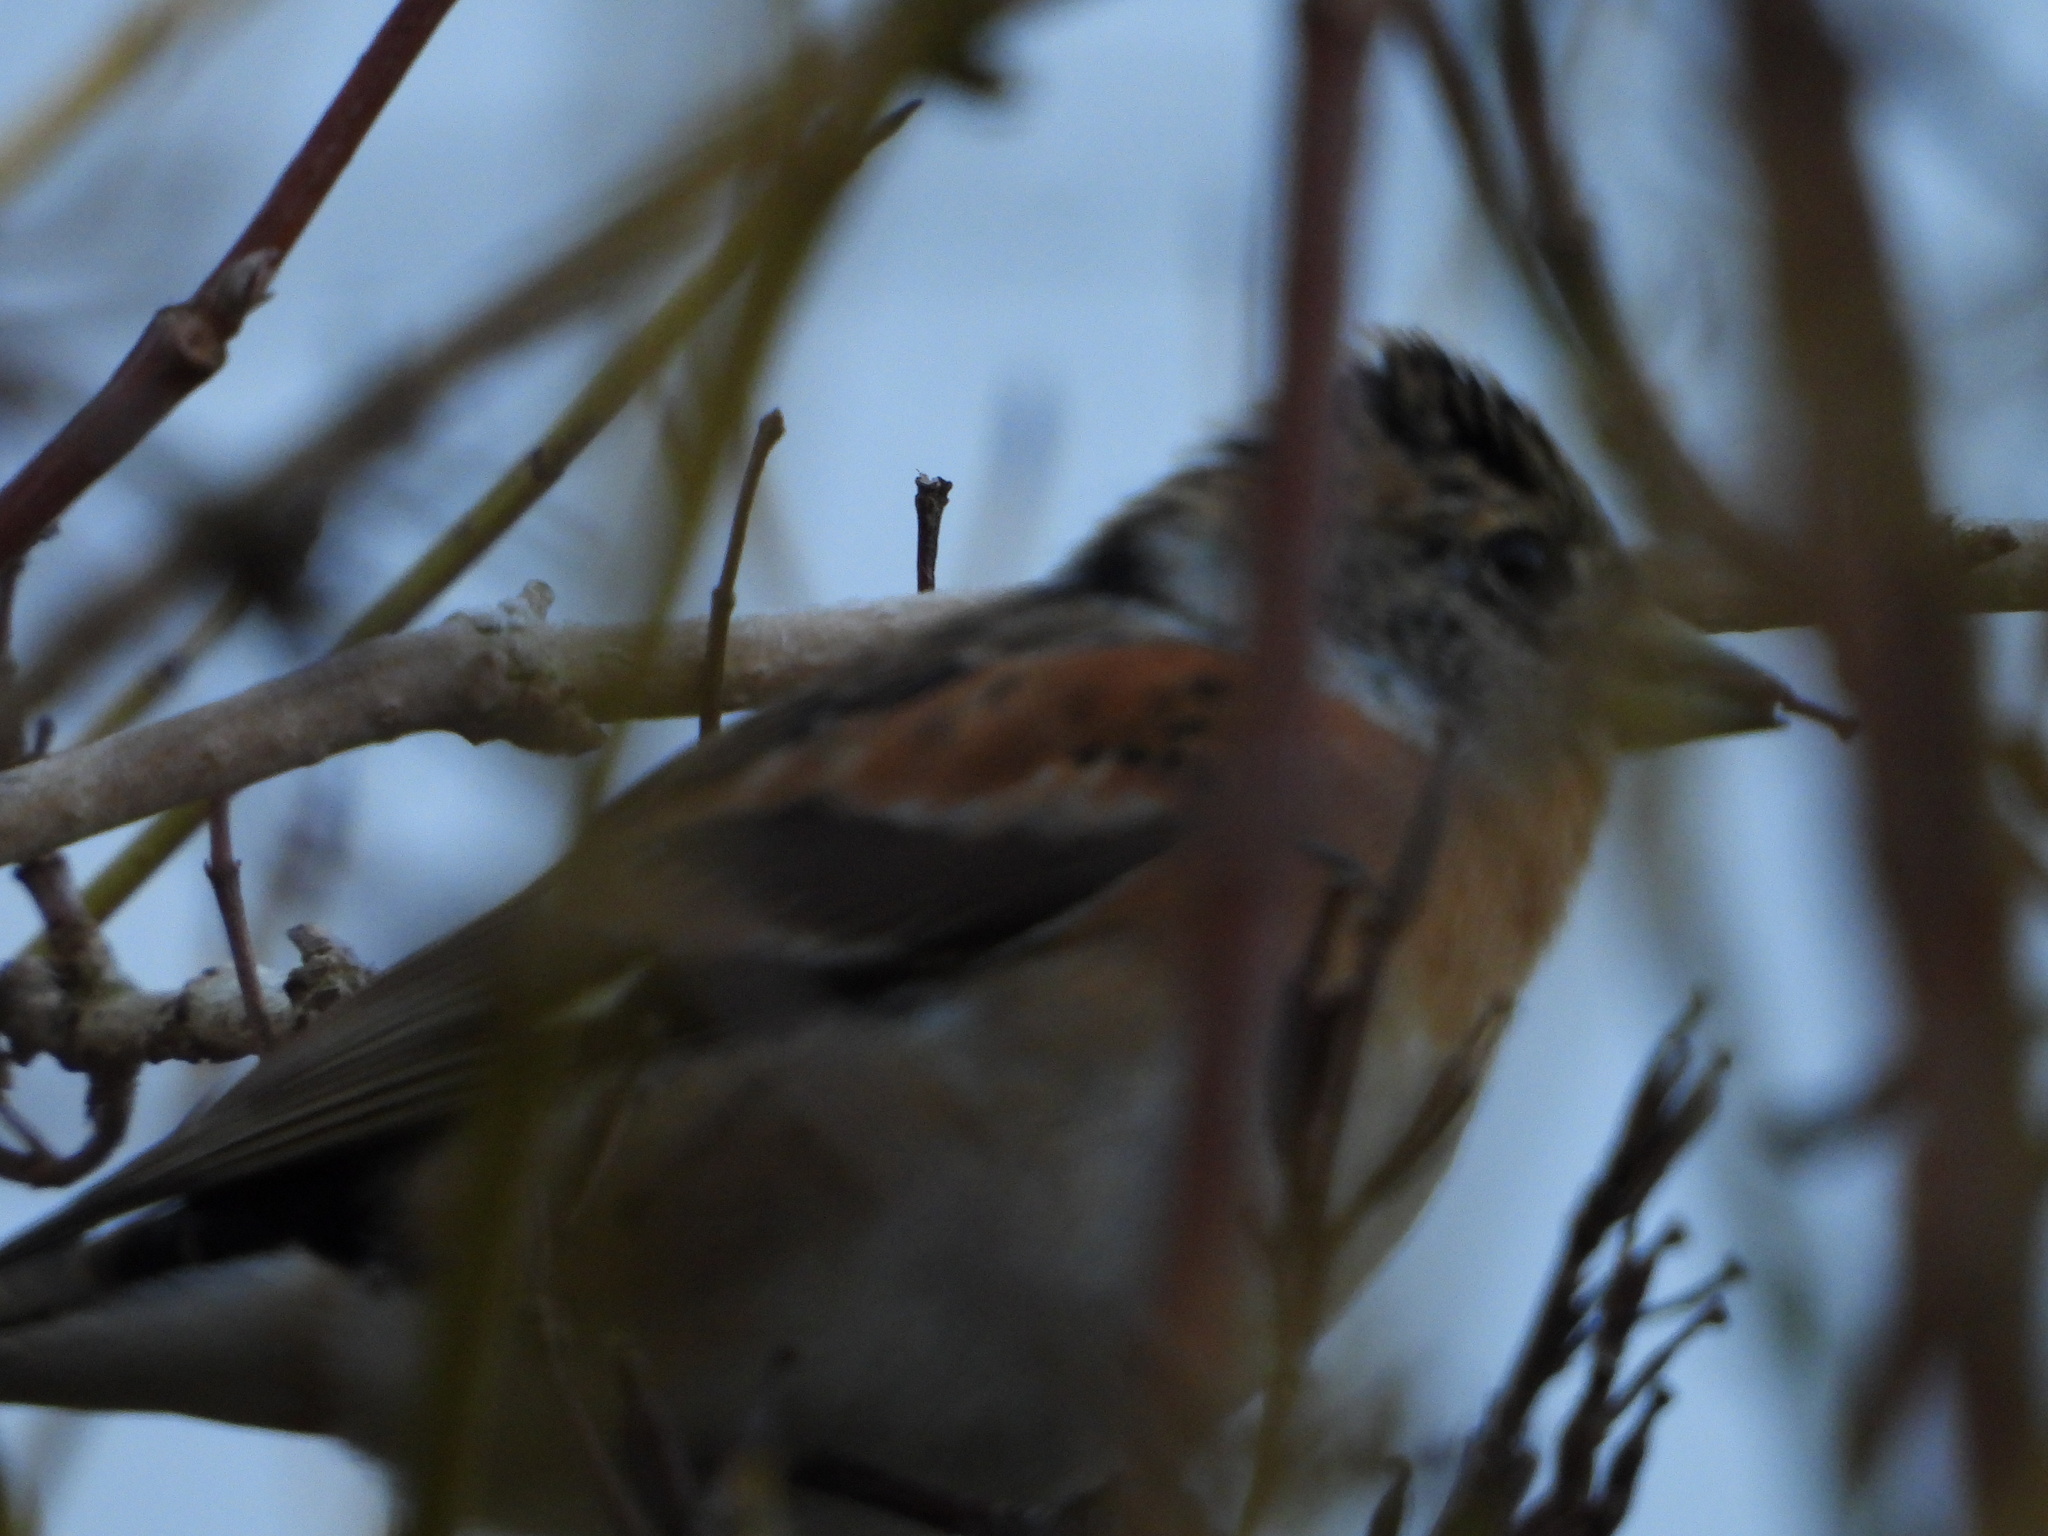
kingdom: Animalia
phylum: Chordata
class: Aves
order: Passeriformes
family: Fringillidae
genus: Fringilla
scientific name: Fringilla montifringilla
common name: Brambling
